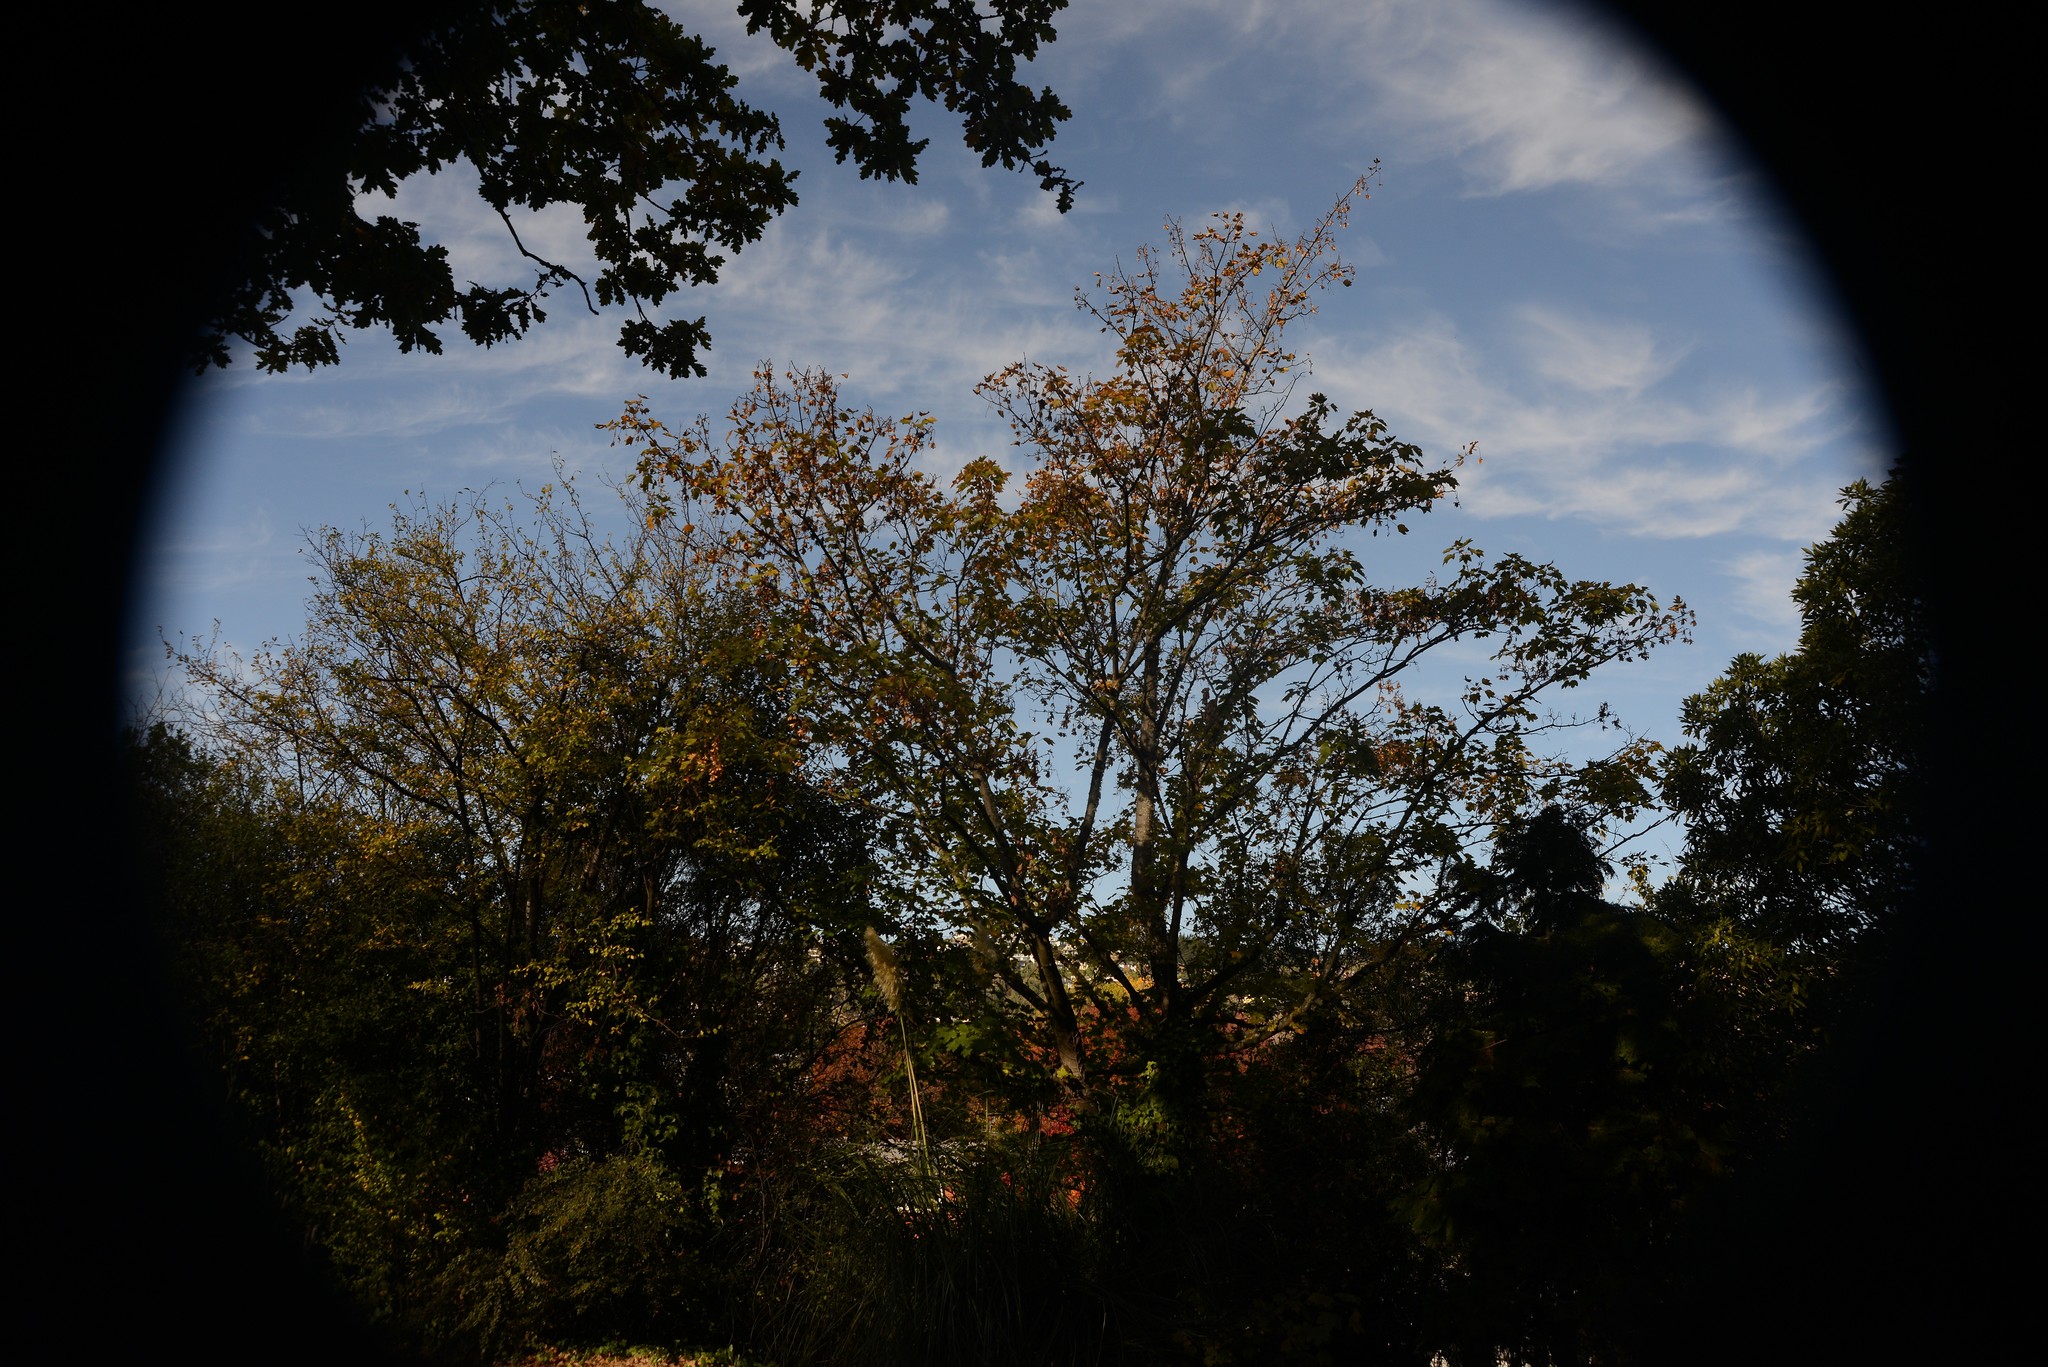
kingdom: Plantae
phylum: Tracheophyta
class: Magnoliopsida
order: Sapindales
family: Sapindaceae
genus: Acer
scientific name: Acer pseudoplatanus
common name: Sycamore
